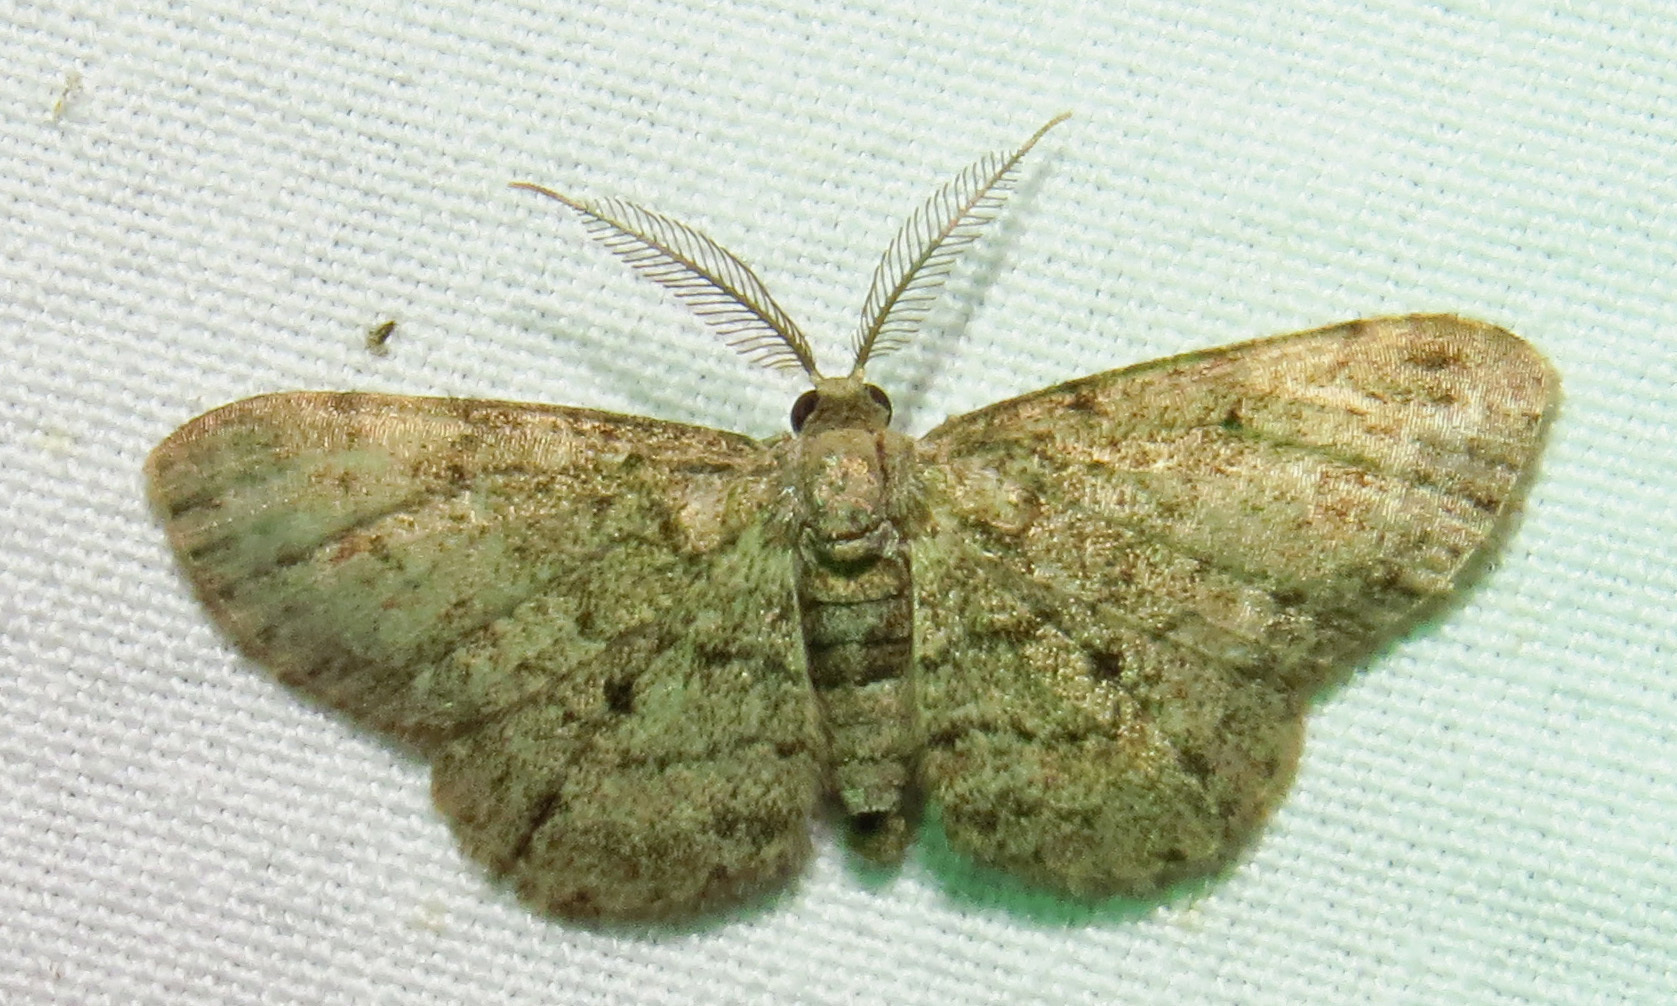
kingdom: Animalia
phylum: Arthropoda
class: Insecta
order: Lepidoptera
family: Geometridae
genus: Glenoides
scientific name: Glenoides texanaria
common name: Texas gray
